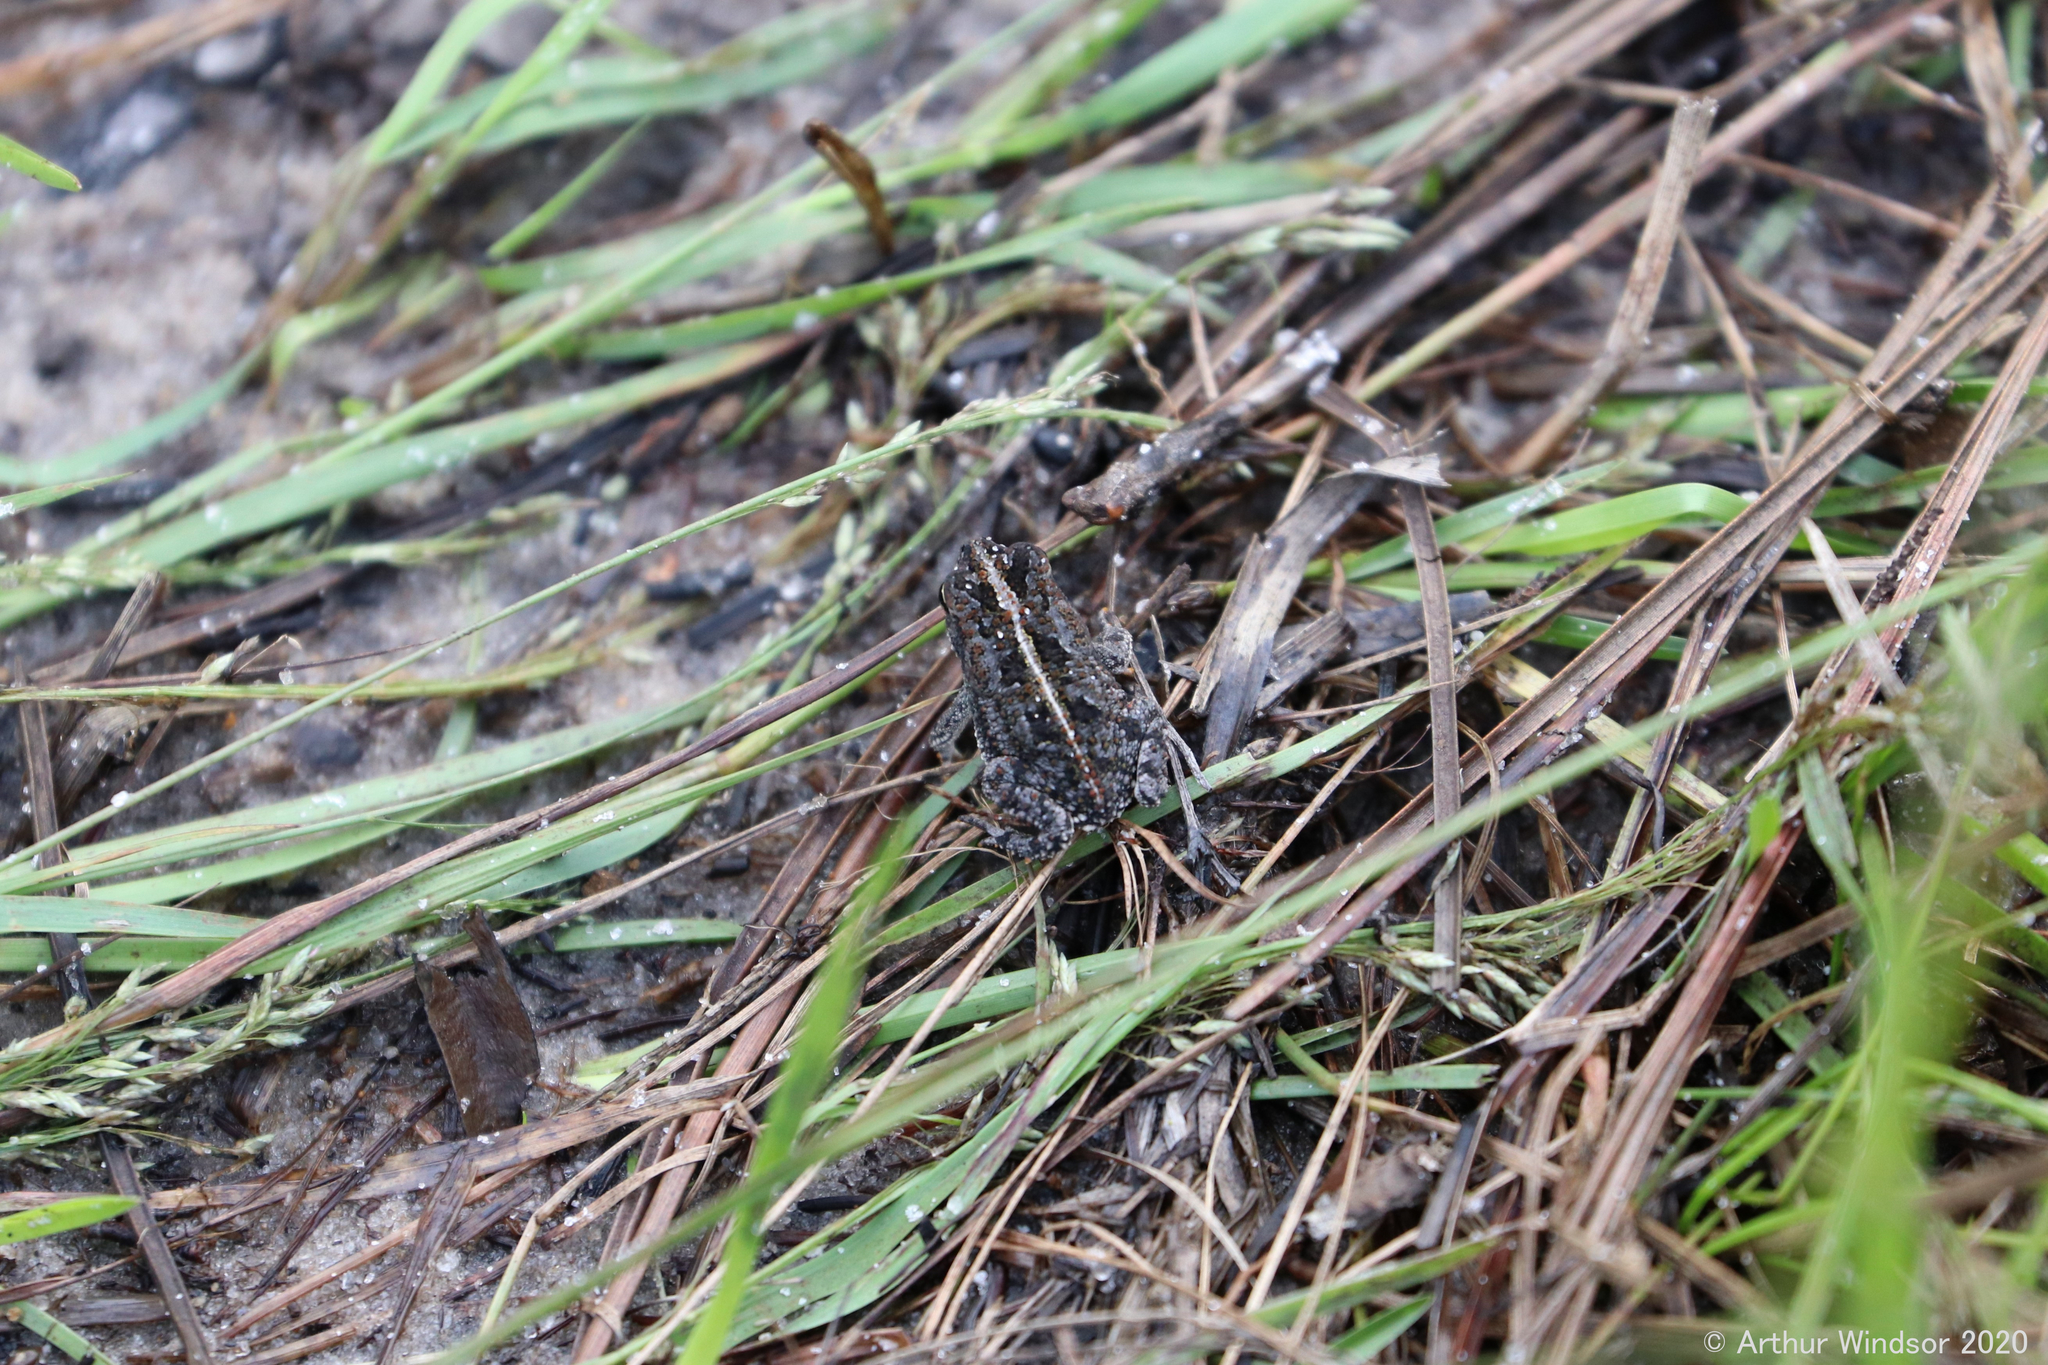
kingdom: Animalia
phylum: Chordata
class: Amphibia
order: Anura
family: Bufonidae
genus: Anaxyrus
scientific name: Anaxyrus quercicus
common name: Oak toad
